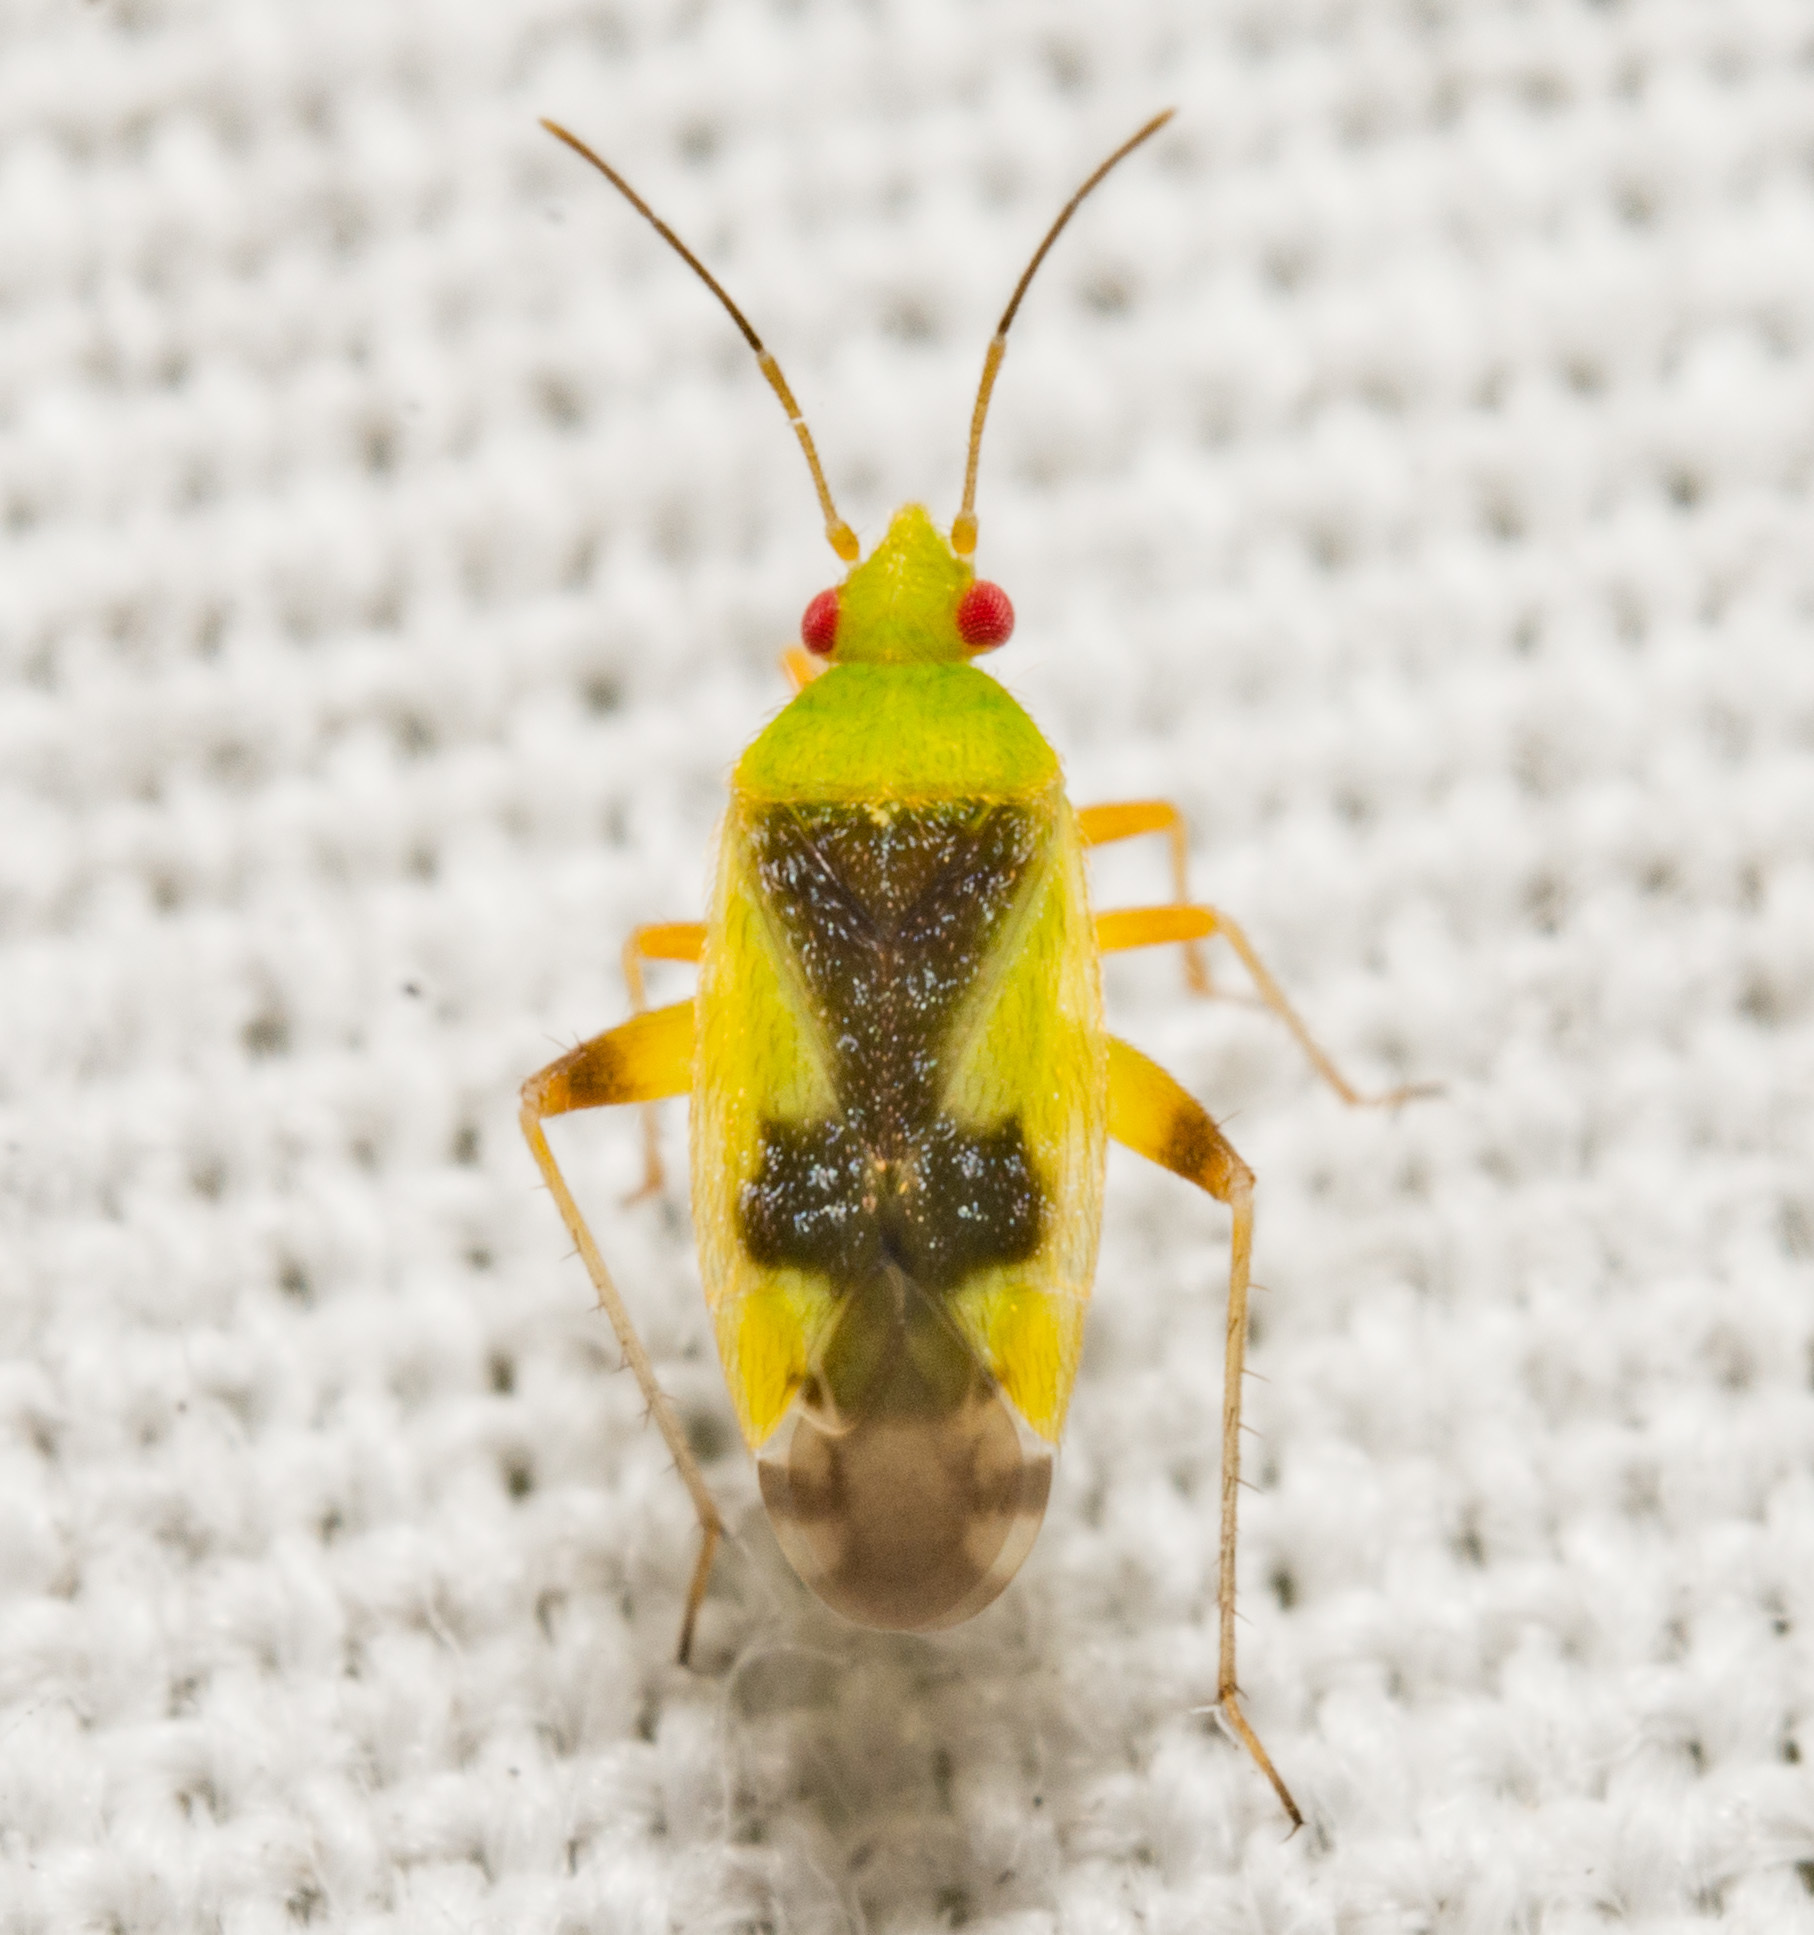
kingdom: Animalia
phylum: Arthropoda
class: Insecta
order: Hemiptera
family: Miridae
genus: Reuteroscopus
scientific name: Reuteroscopus femoralis
